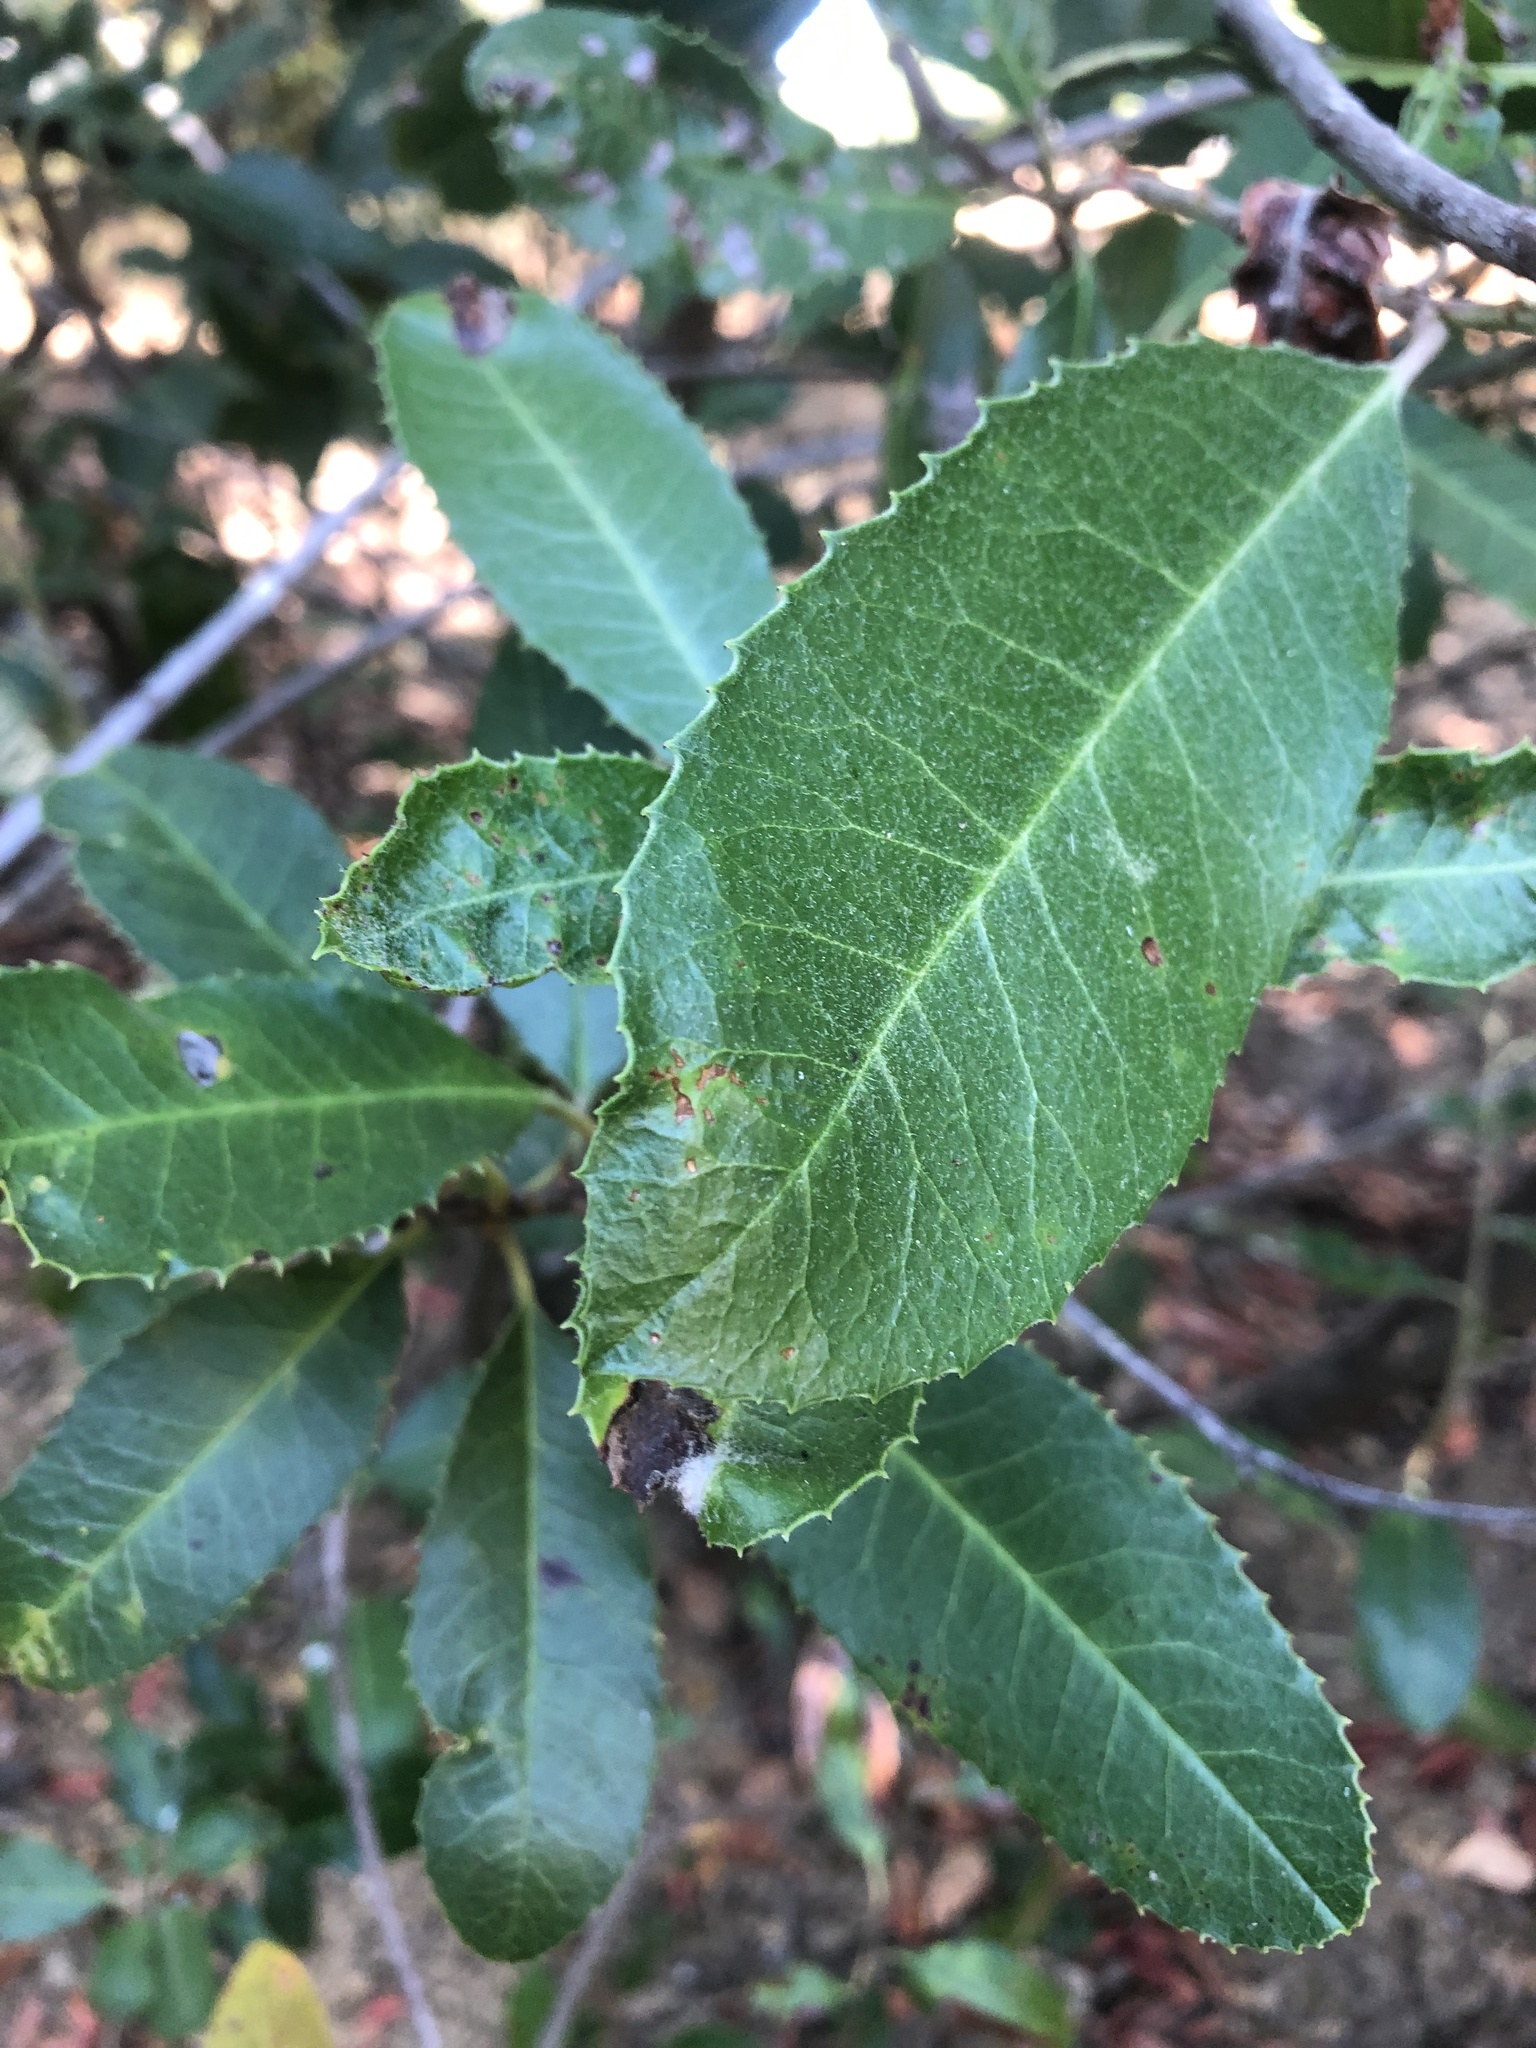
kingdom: Plantae
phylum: Tracheophyta
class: Magnoliopsida
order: Rosales
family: Rosaceae
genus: Heteromeles
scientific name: Heteromeles arbutifolia
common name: California-holly
